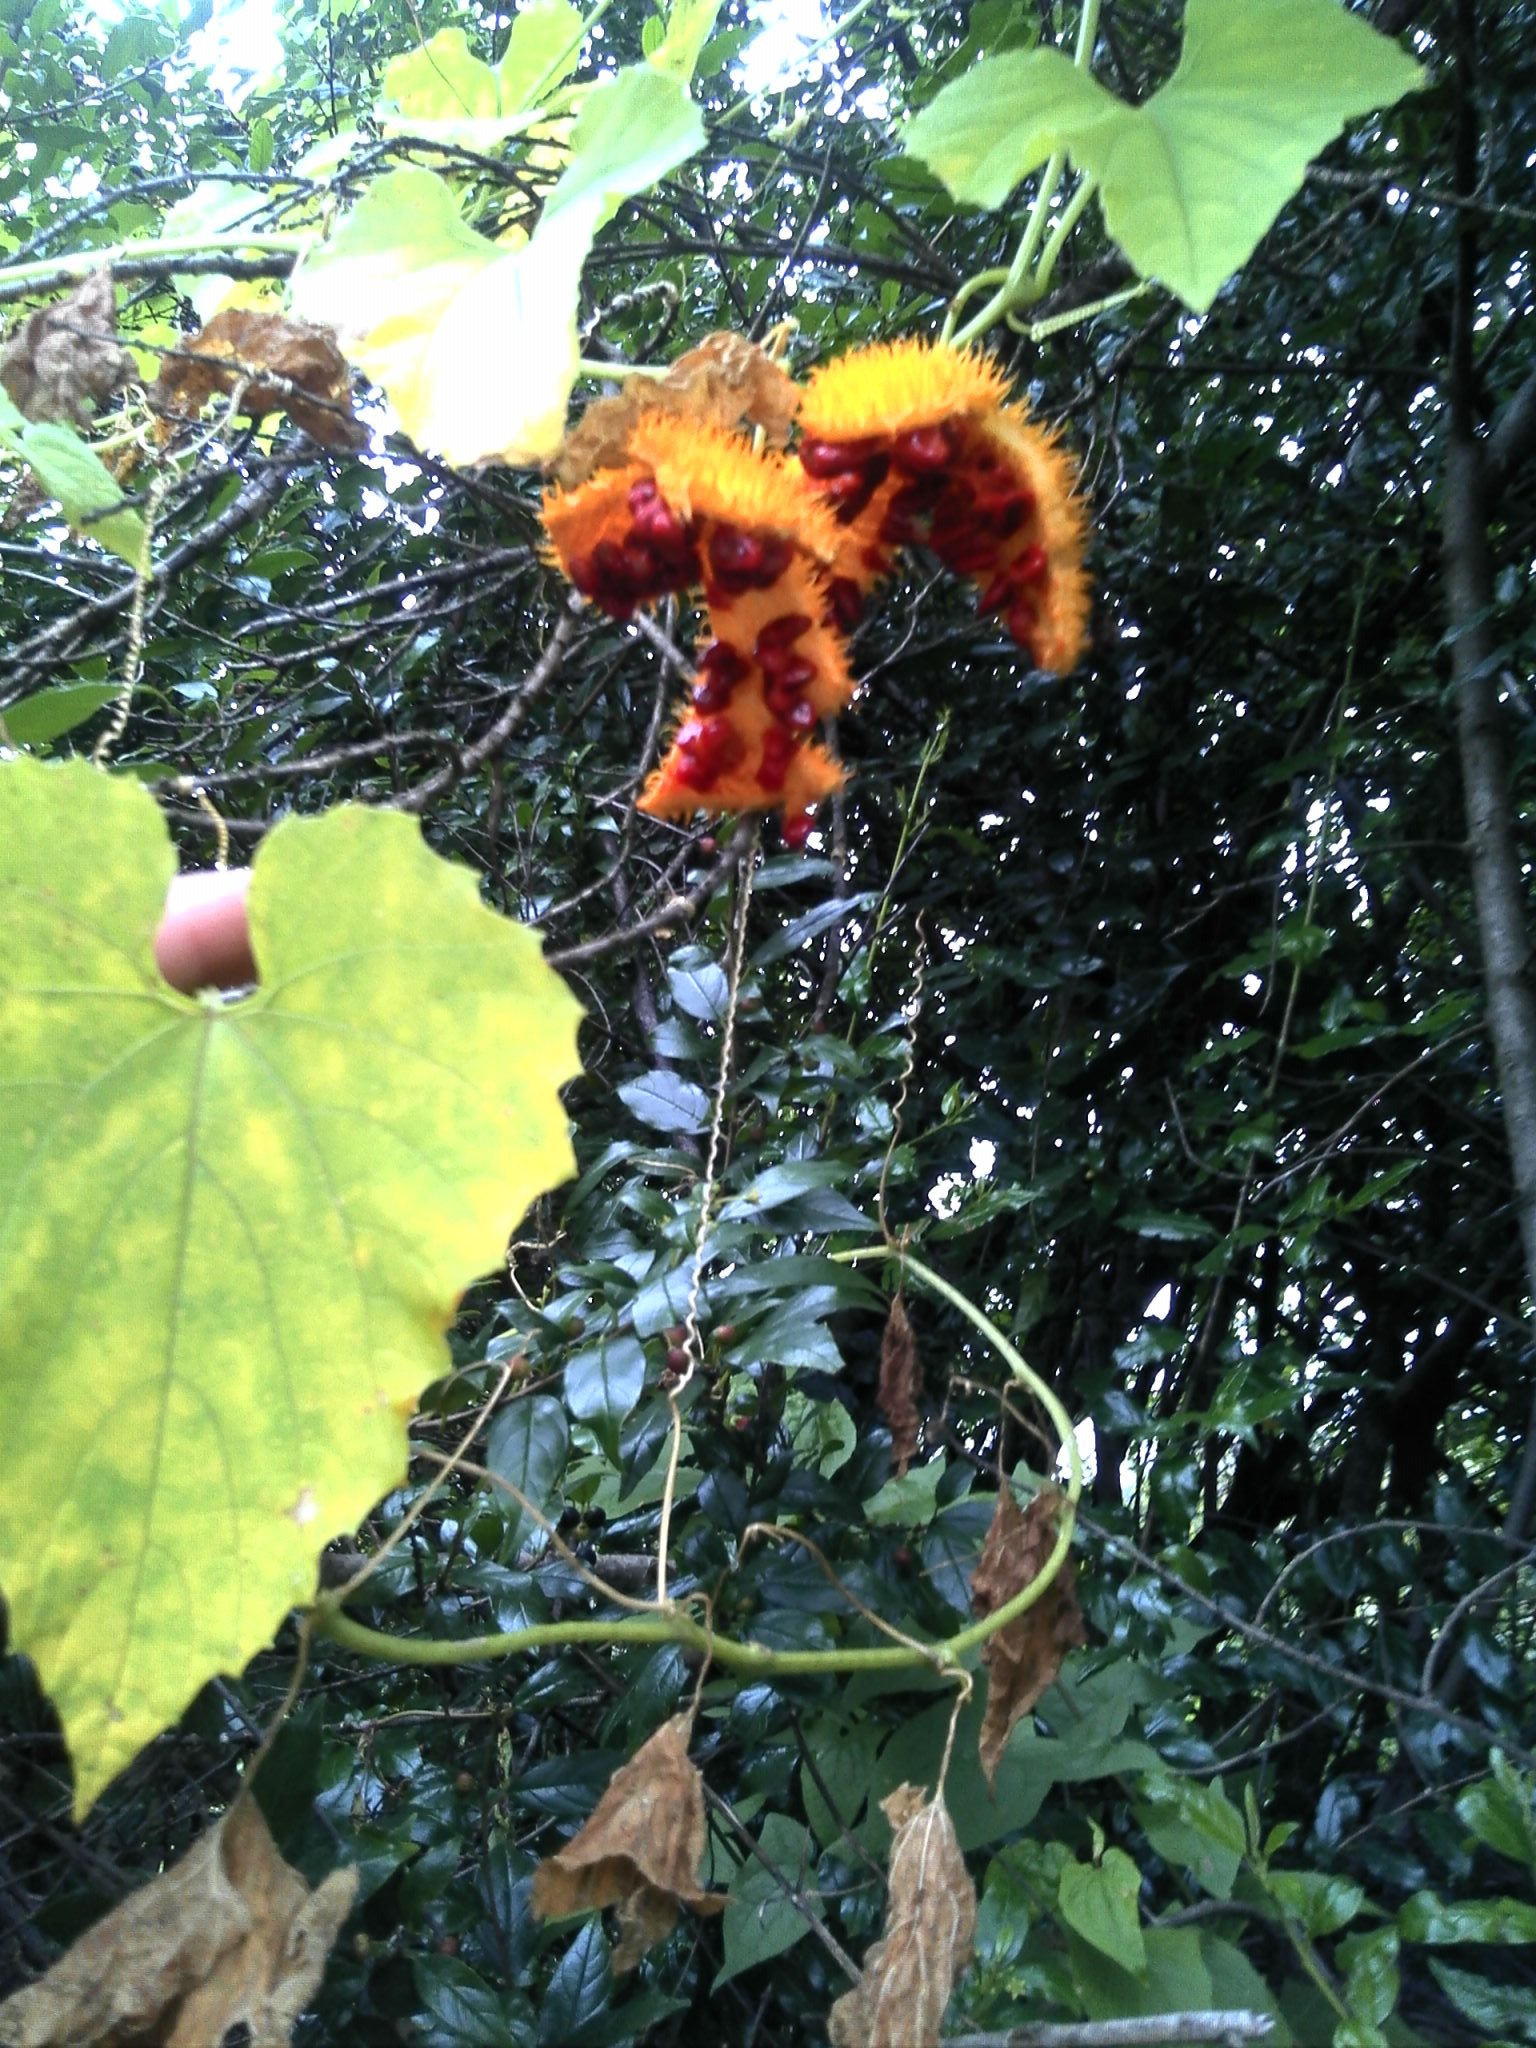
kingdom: Plantae
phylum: Tracheophyta
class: Magnoliopsida
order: Cucurbitales
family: Cucurbitaceae
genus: Momordica
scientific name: Momordica foetida
